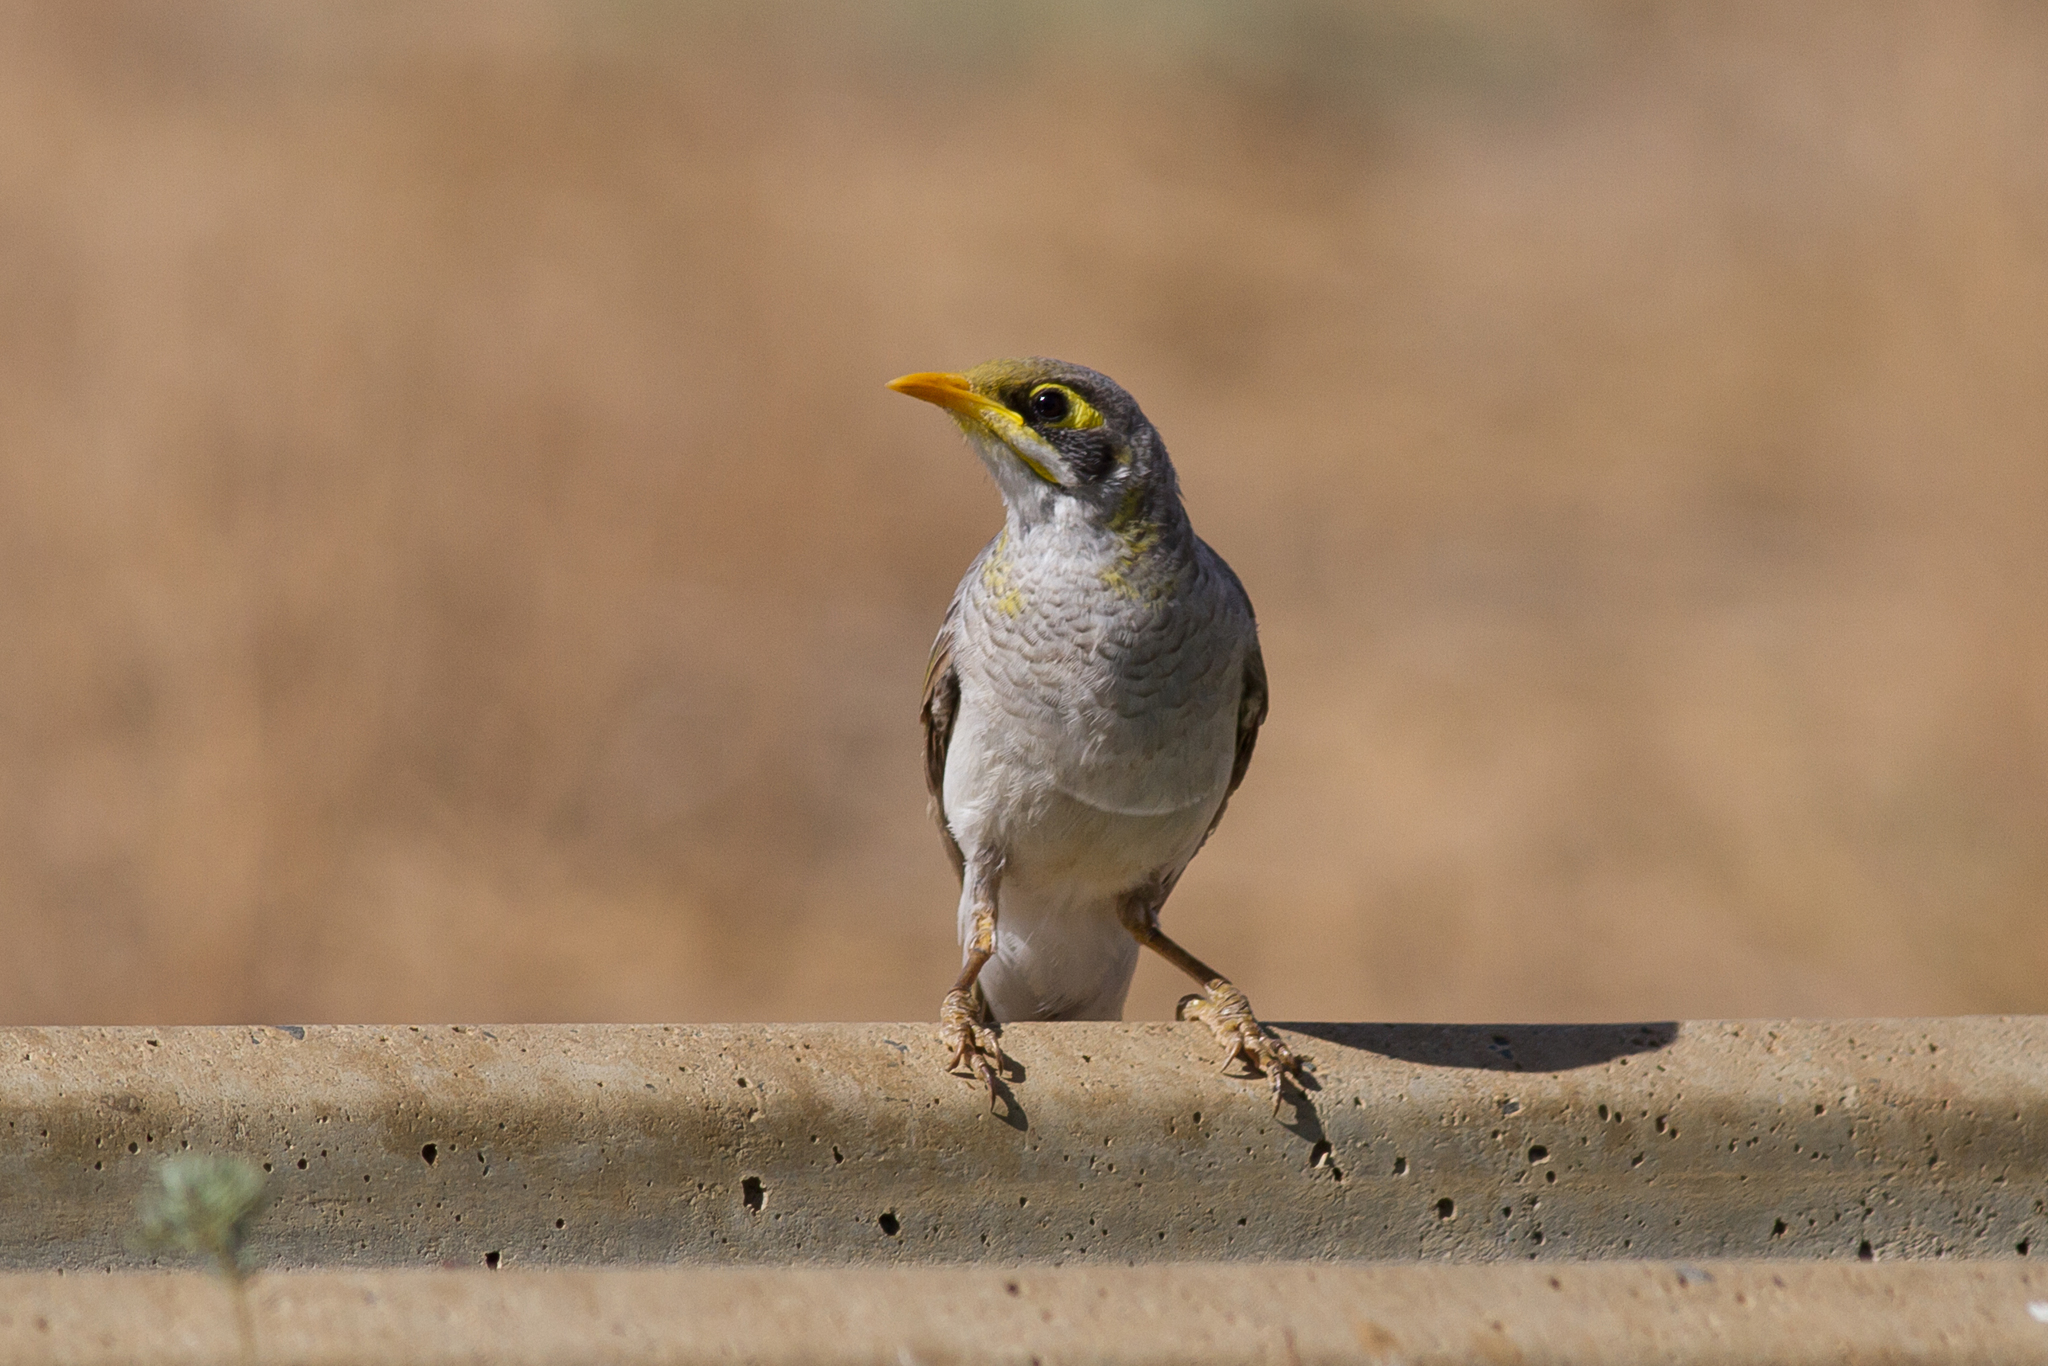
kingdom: Animalia
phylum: Chordata
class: Aves
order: Passeriformes
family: Meliphagidae
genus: Manorina
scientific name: Manorina flavigula
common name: Yellow-throated miner
